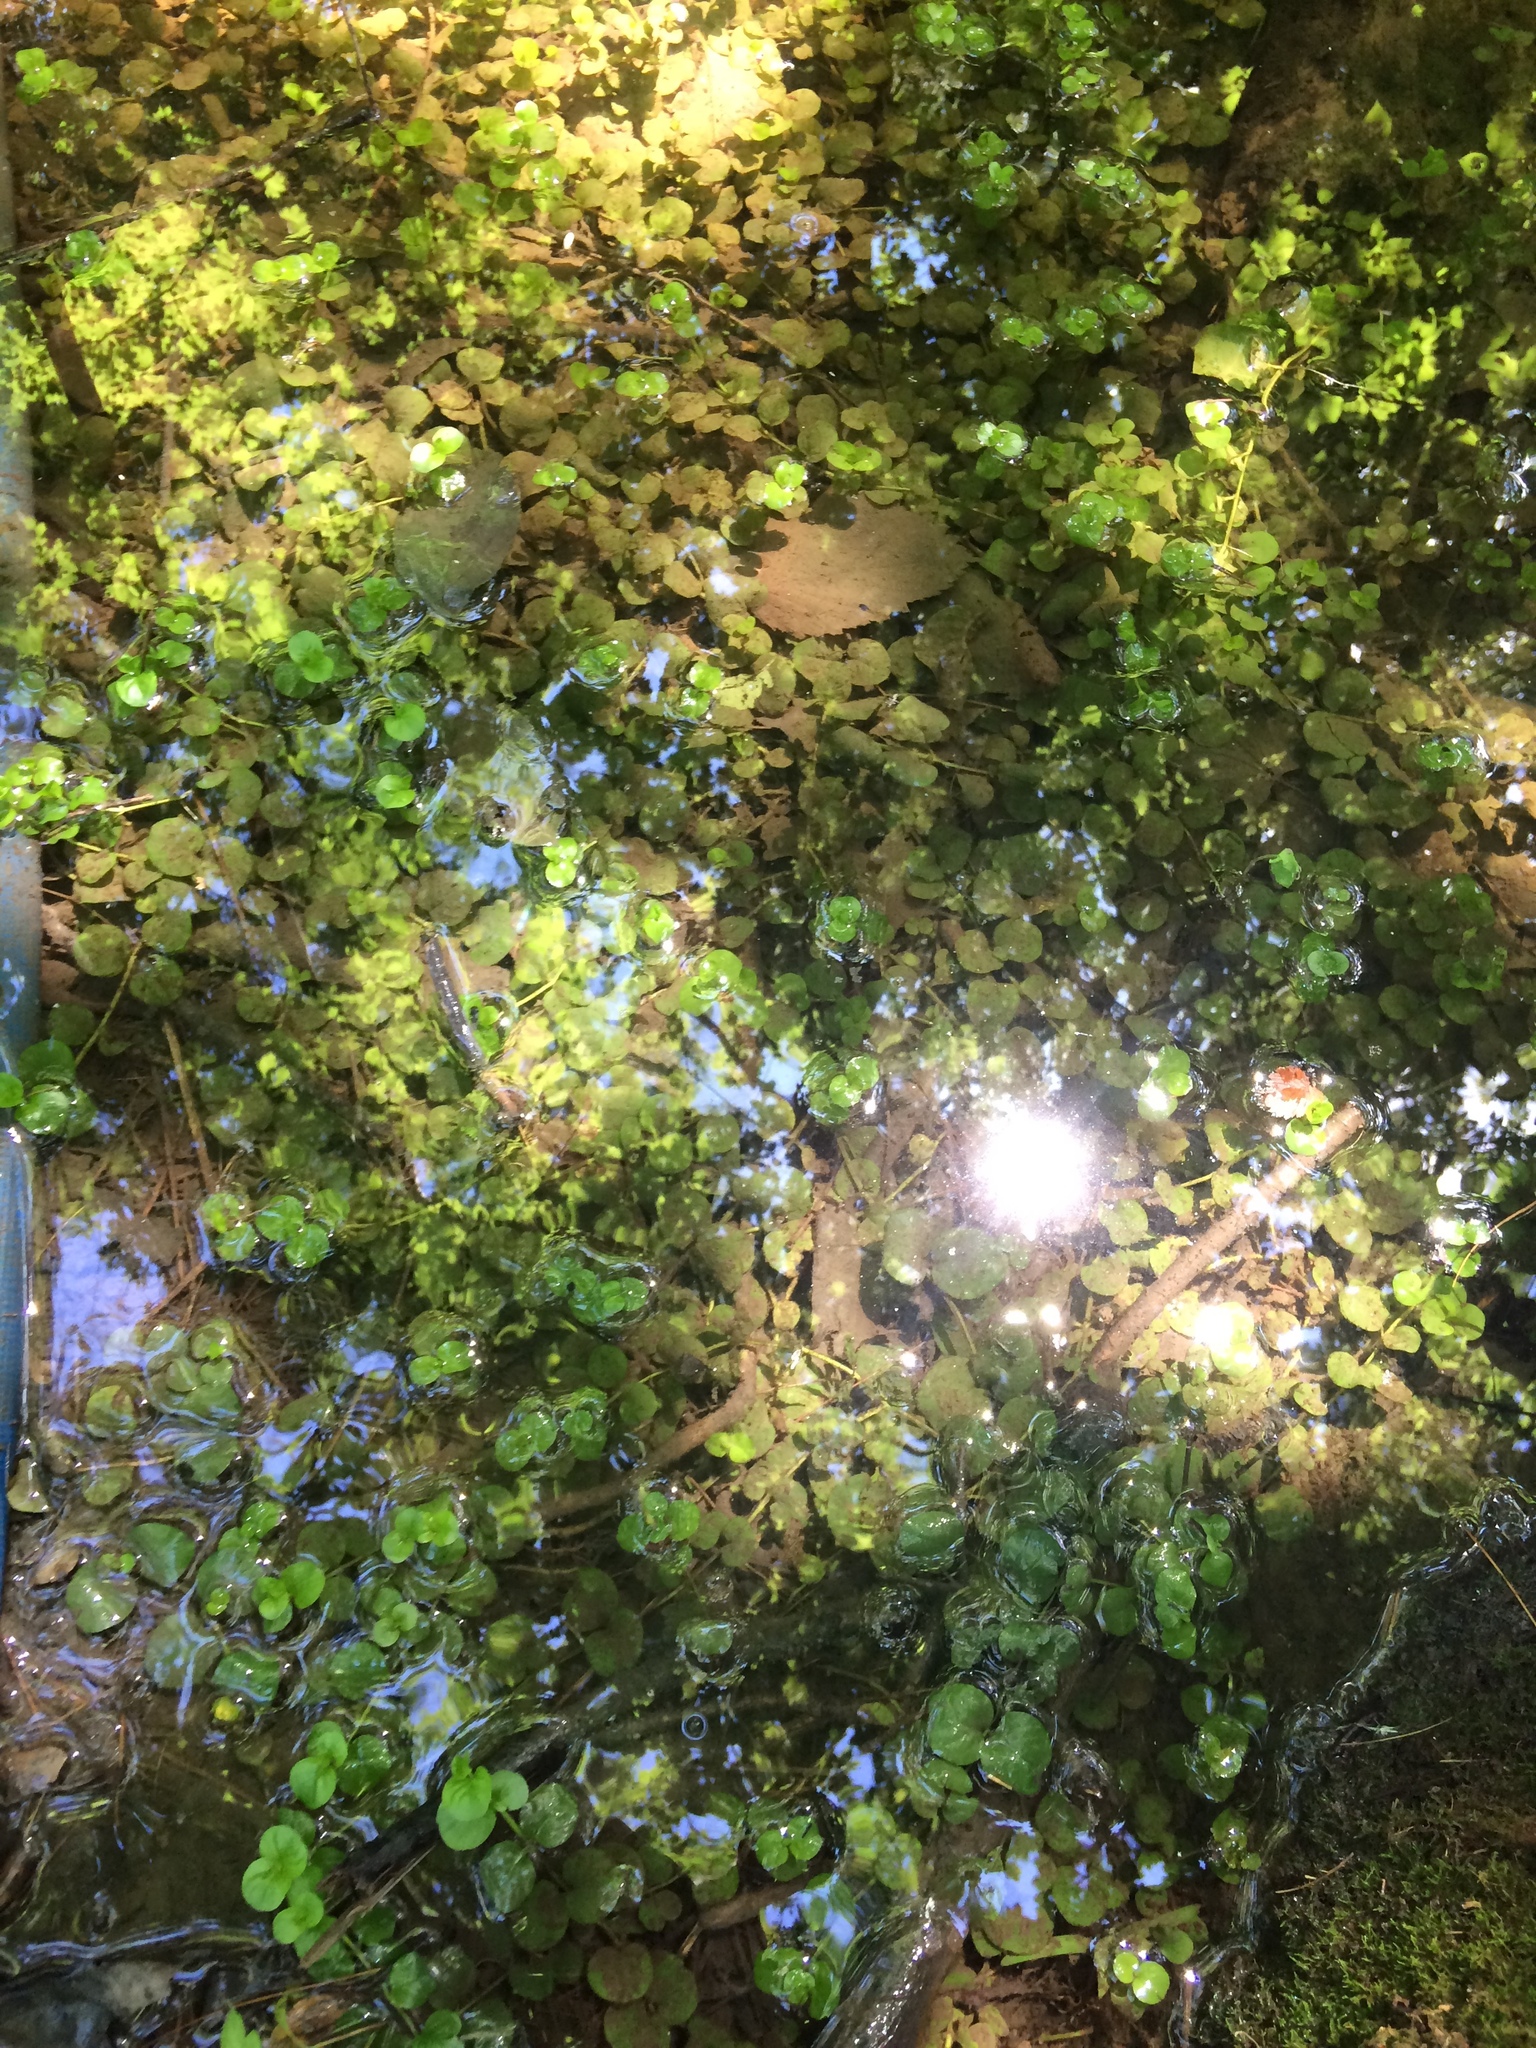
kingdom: Plantae
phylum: Tracheophyta
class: Magnoliopsida
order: Ericales
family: Primulaceae
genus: Lysimachia
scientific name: Lysimachia nummularia
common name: Moneywort
